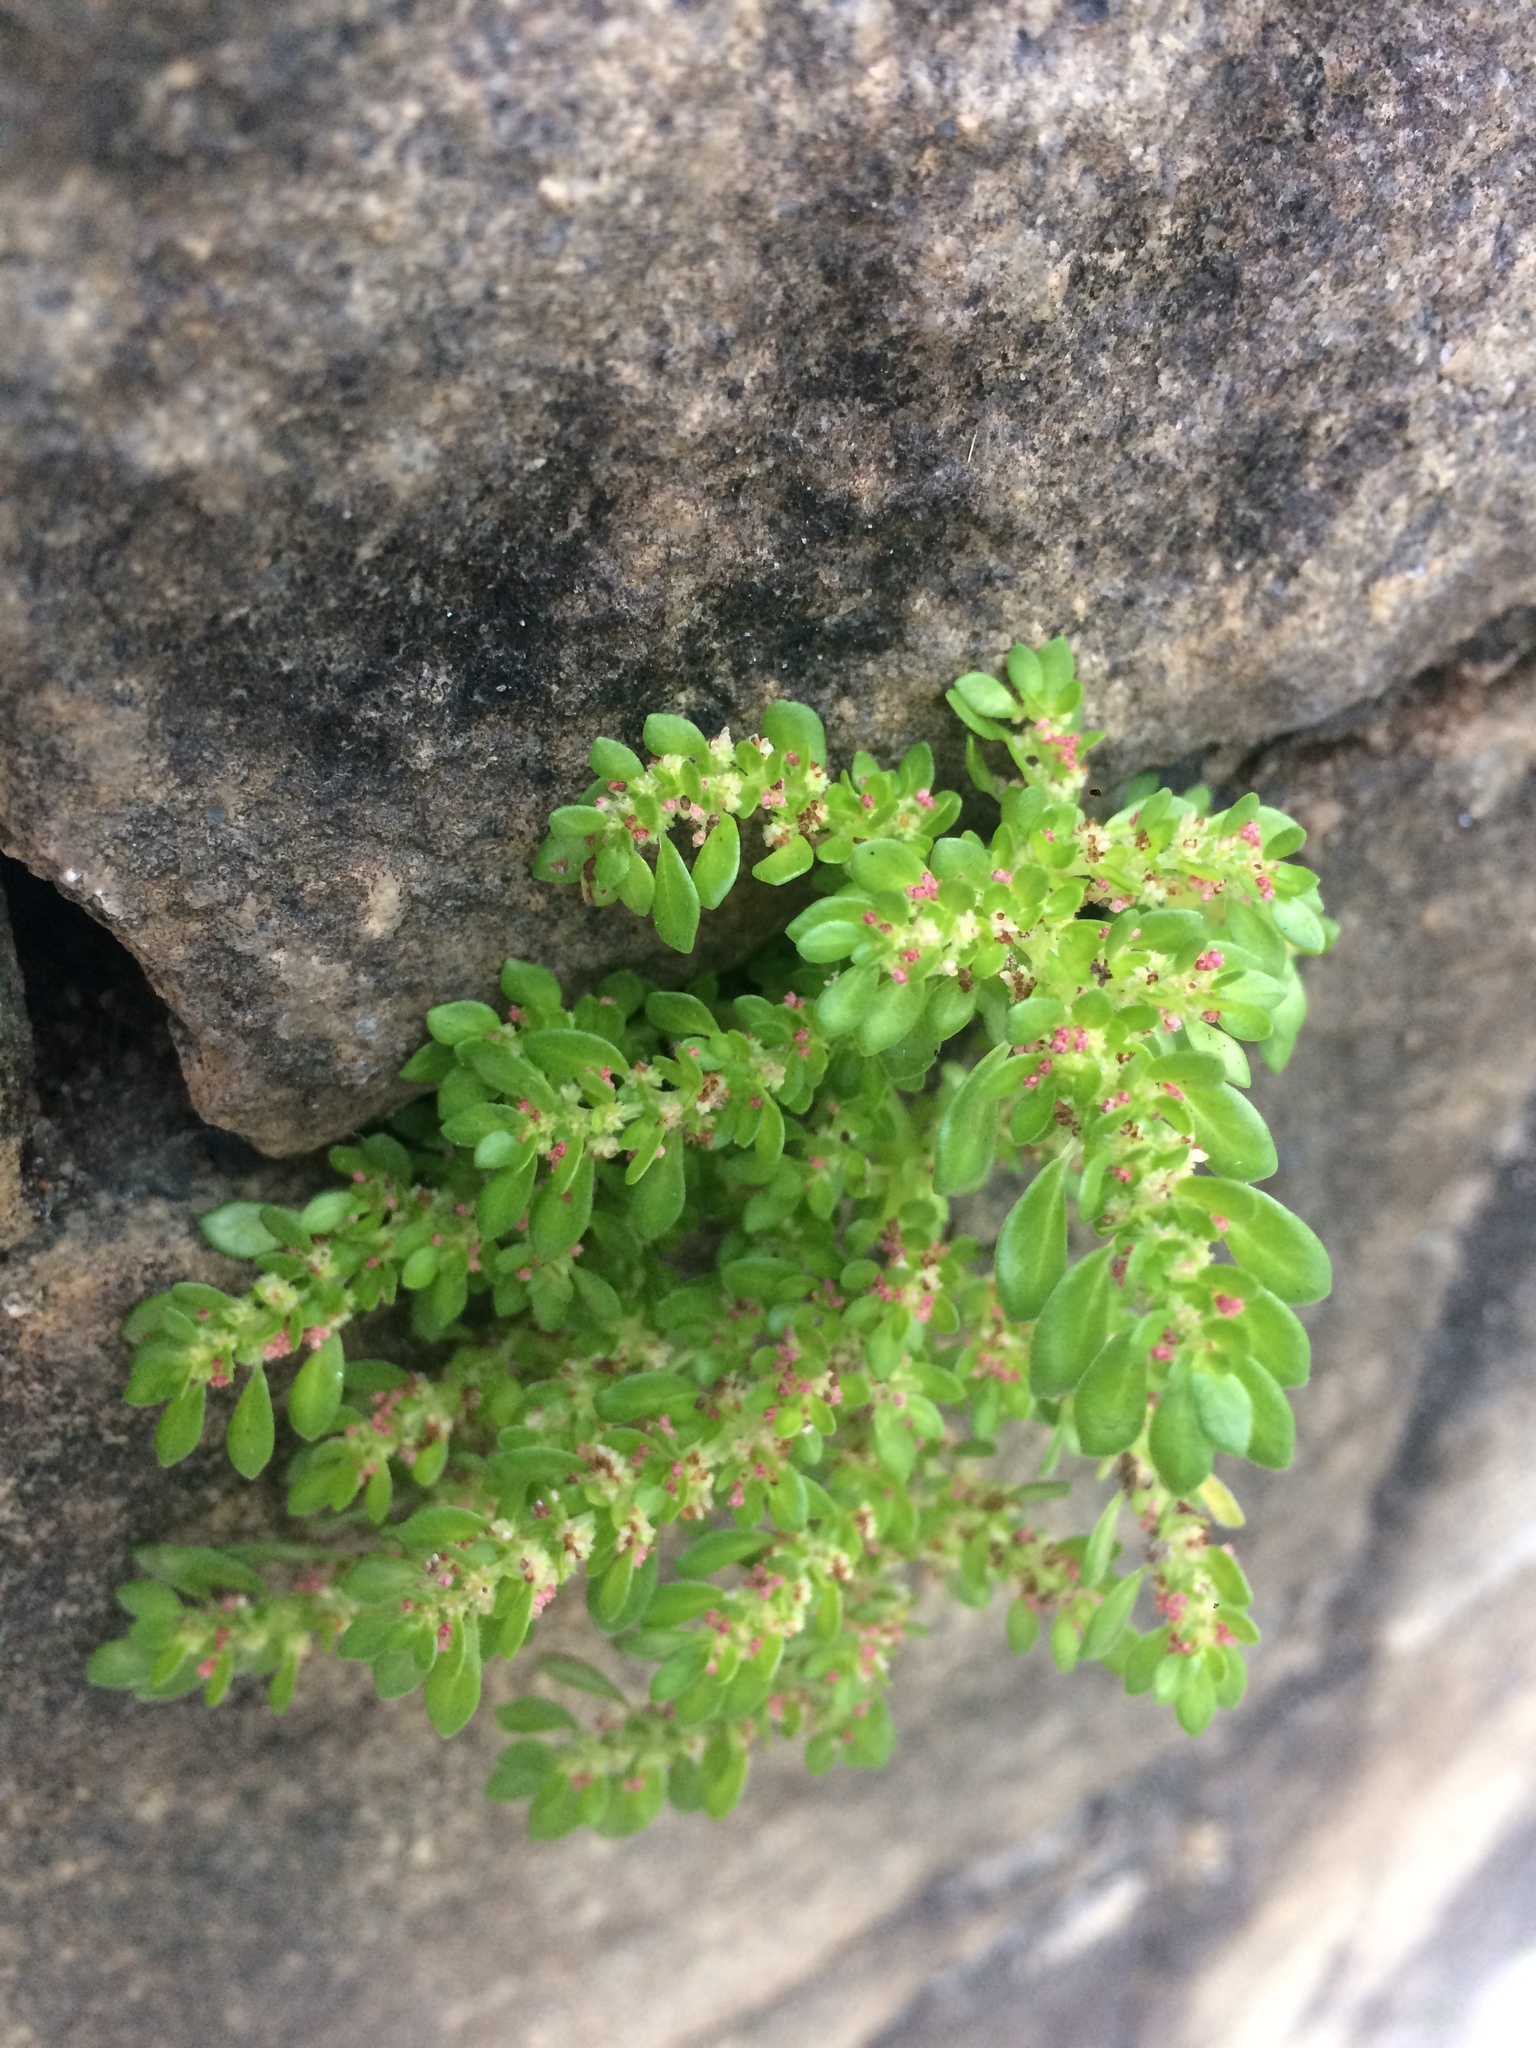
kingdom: Plantae
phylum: Tracheophyta
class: Magnoliopsida
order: Rosales
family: Urticaceae
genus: Pilea
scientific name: Pilea microphylla
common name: Artillery-plant
